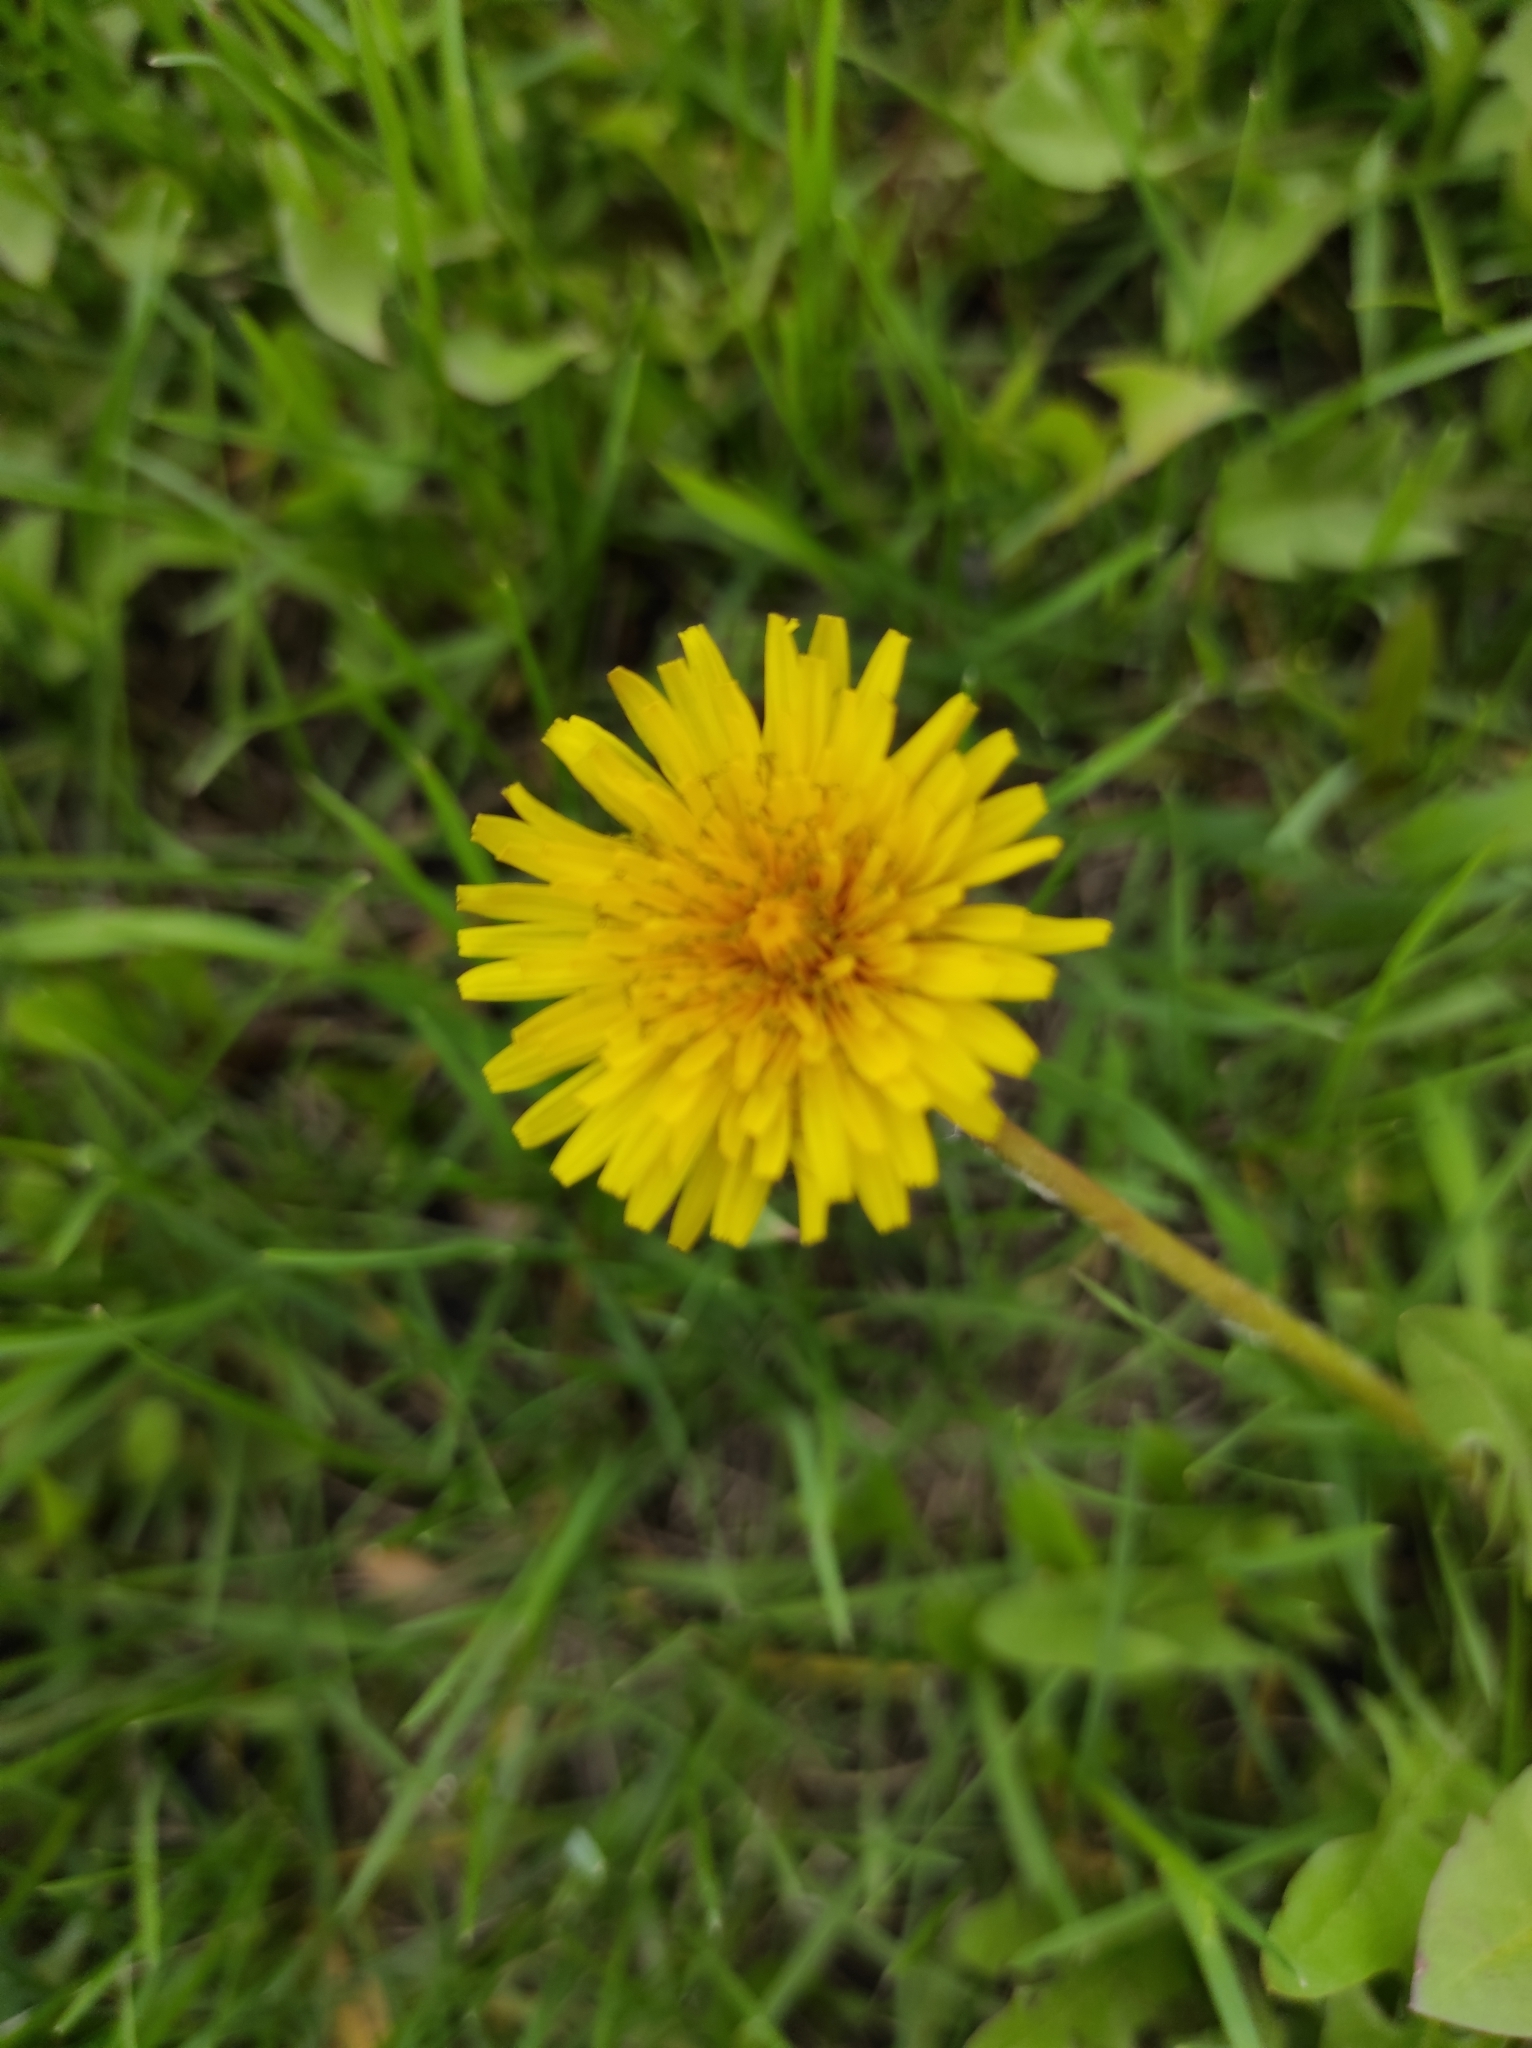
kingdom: Plantae
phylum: Tracheophyta
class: Magnoliopsida
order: Asterales
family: Asteraceae
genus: Taraxacum
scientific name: Taraxacum officinale
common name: Common dandelion
